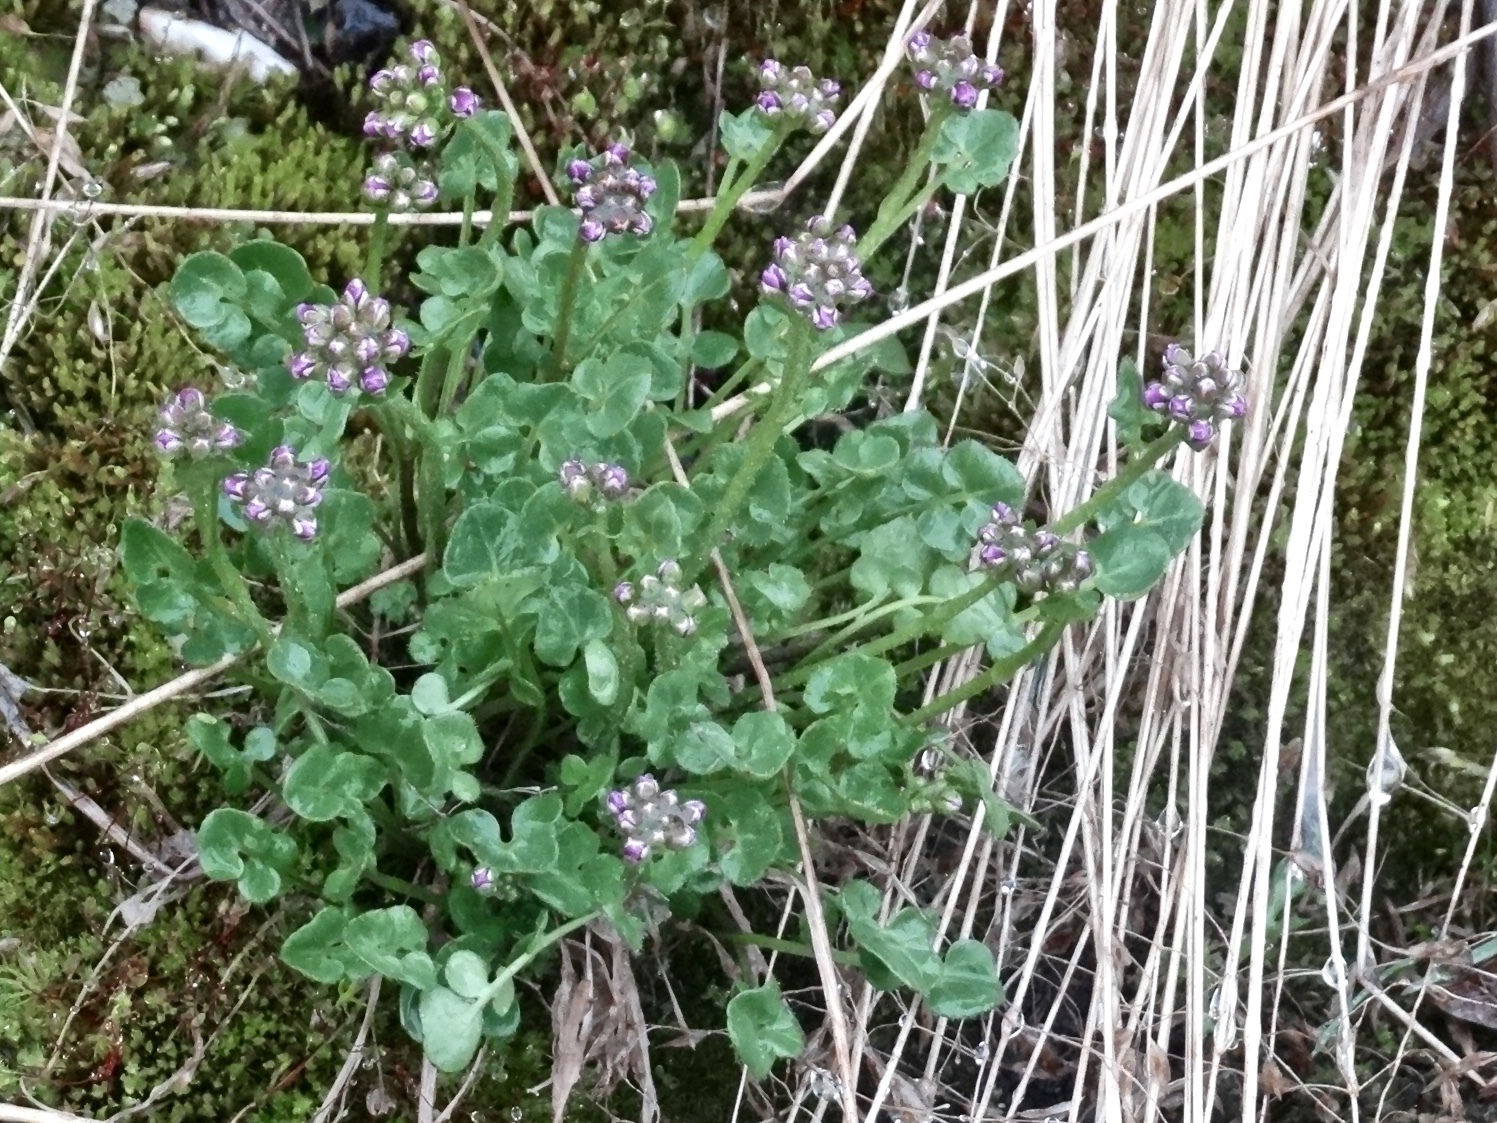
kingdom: Plantae
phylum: Tracheophyta
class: Magnoliopsida
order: Brassicales
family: Brassicaceae
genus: Cardamine
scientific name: Cardamine purpurea
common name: Purple bittercress
